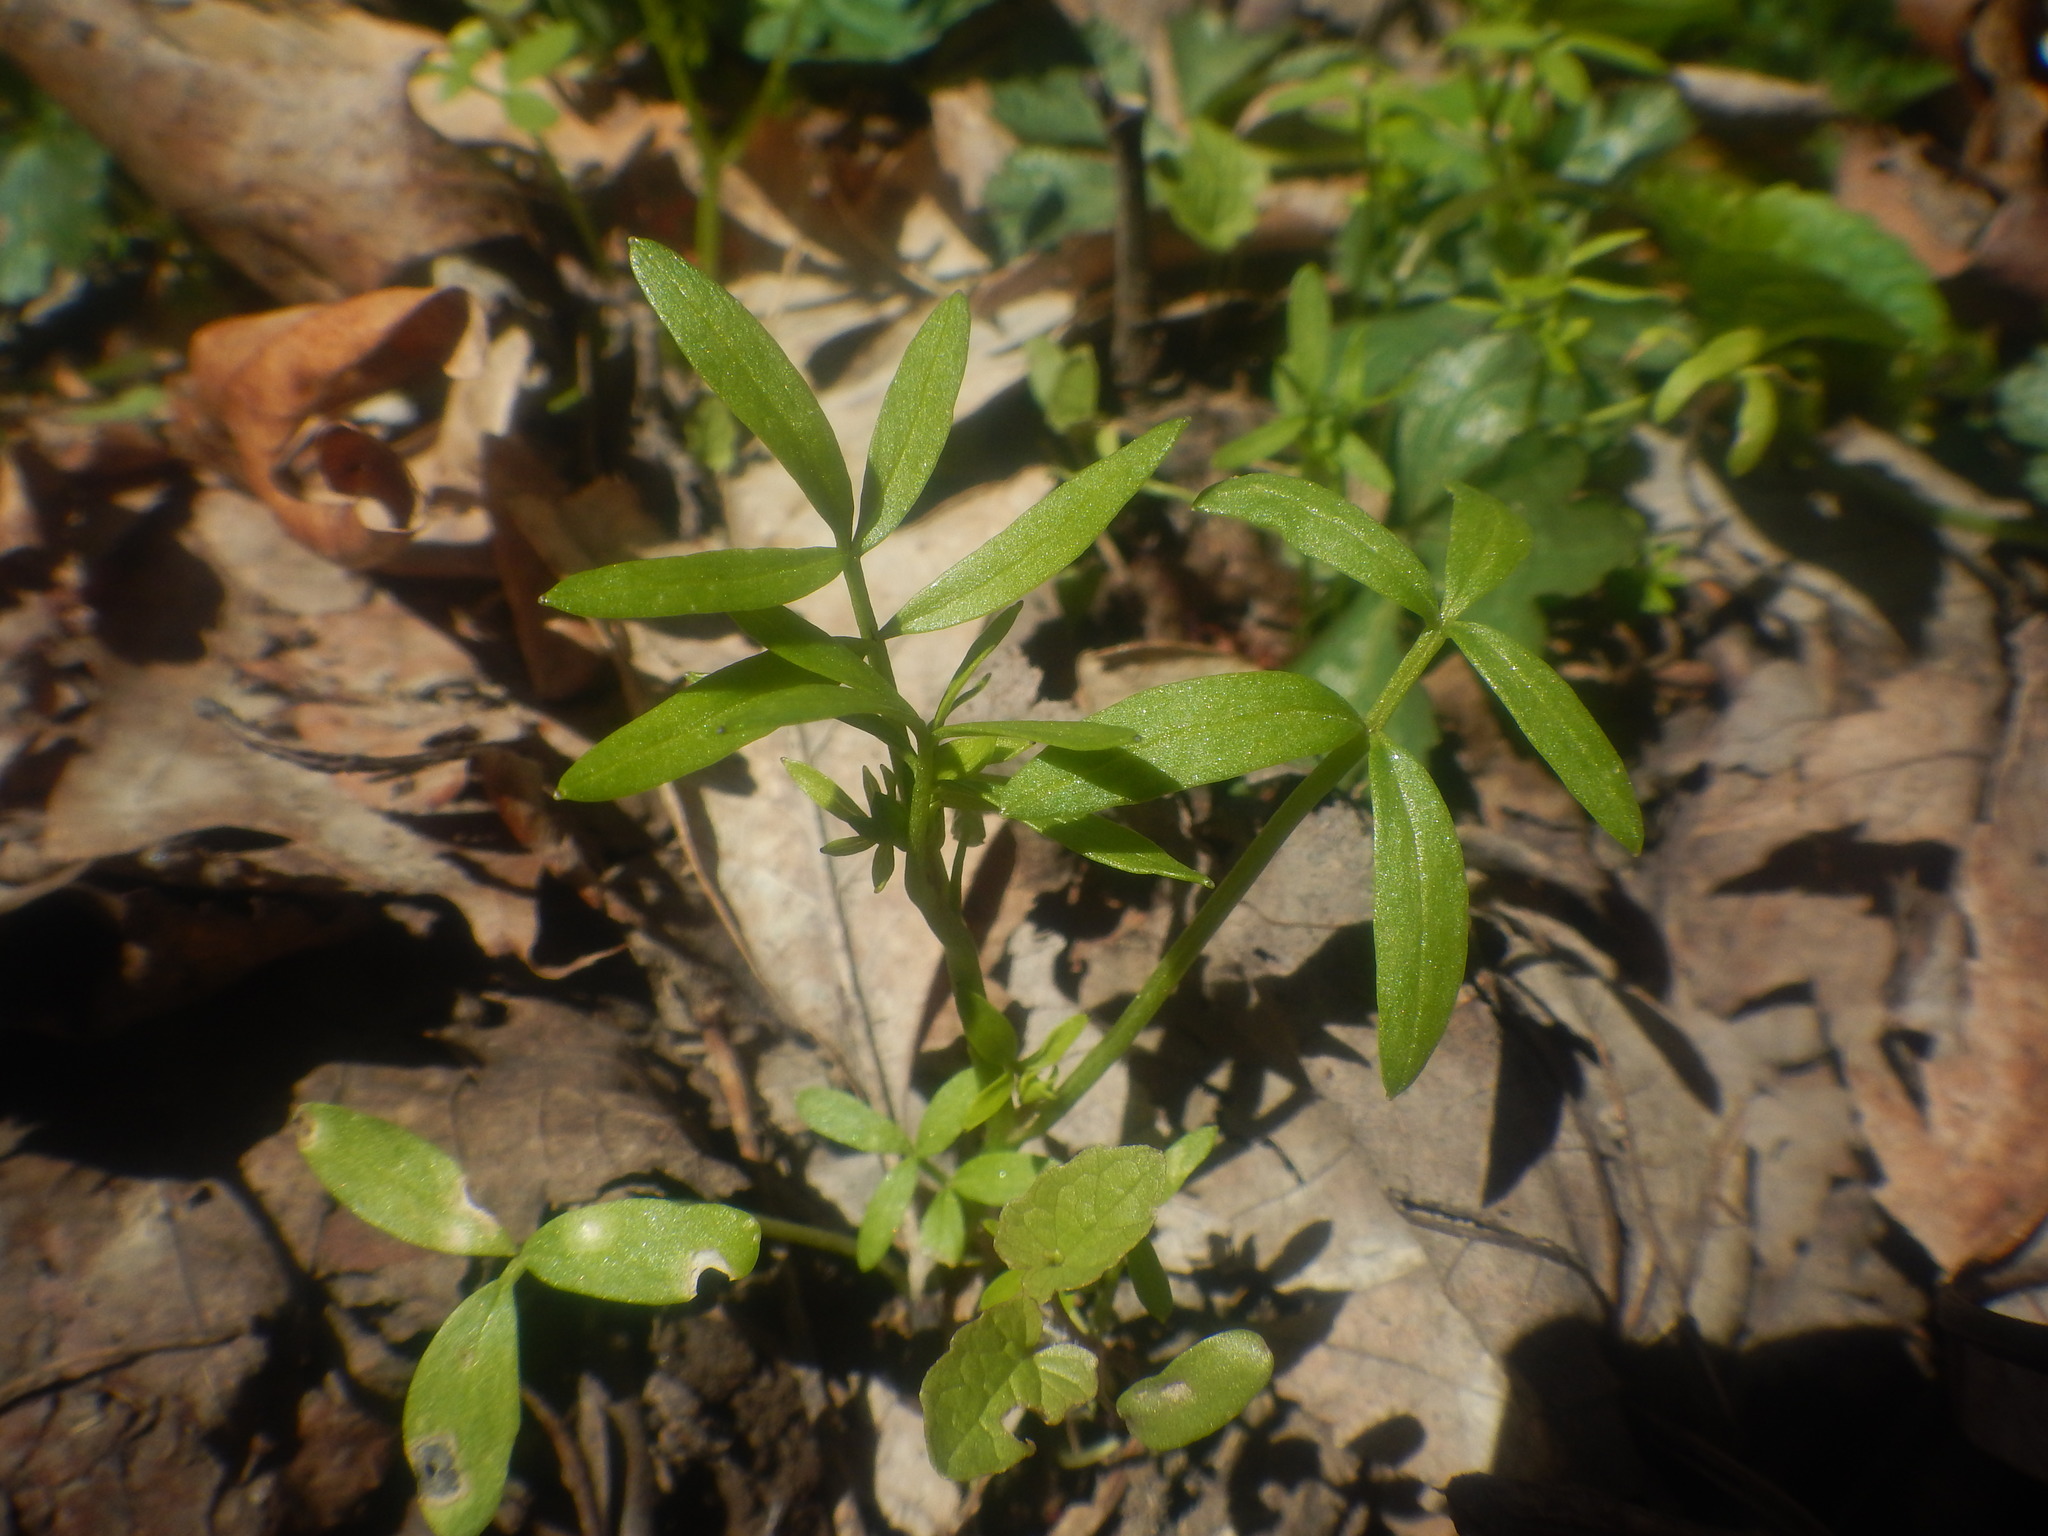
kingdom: Plantae
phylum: Tracheophyta
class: Magnoliopsida
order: Brassicales
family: Limnanthaceae
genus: Floerkea
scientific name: Floerkea proserpinacoides
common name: False mermaid
